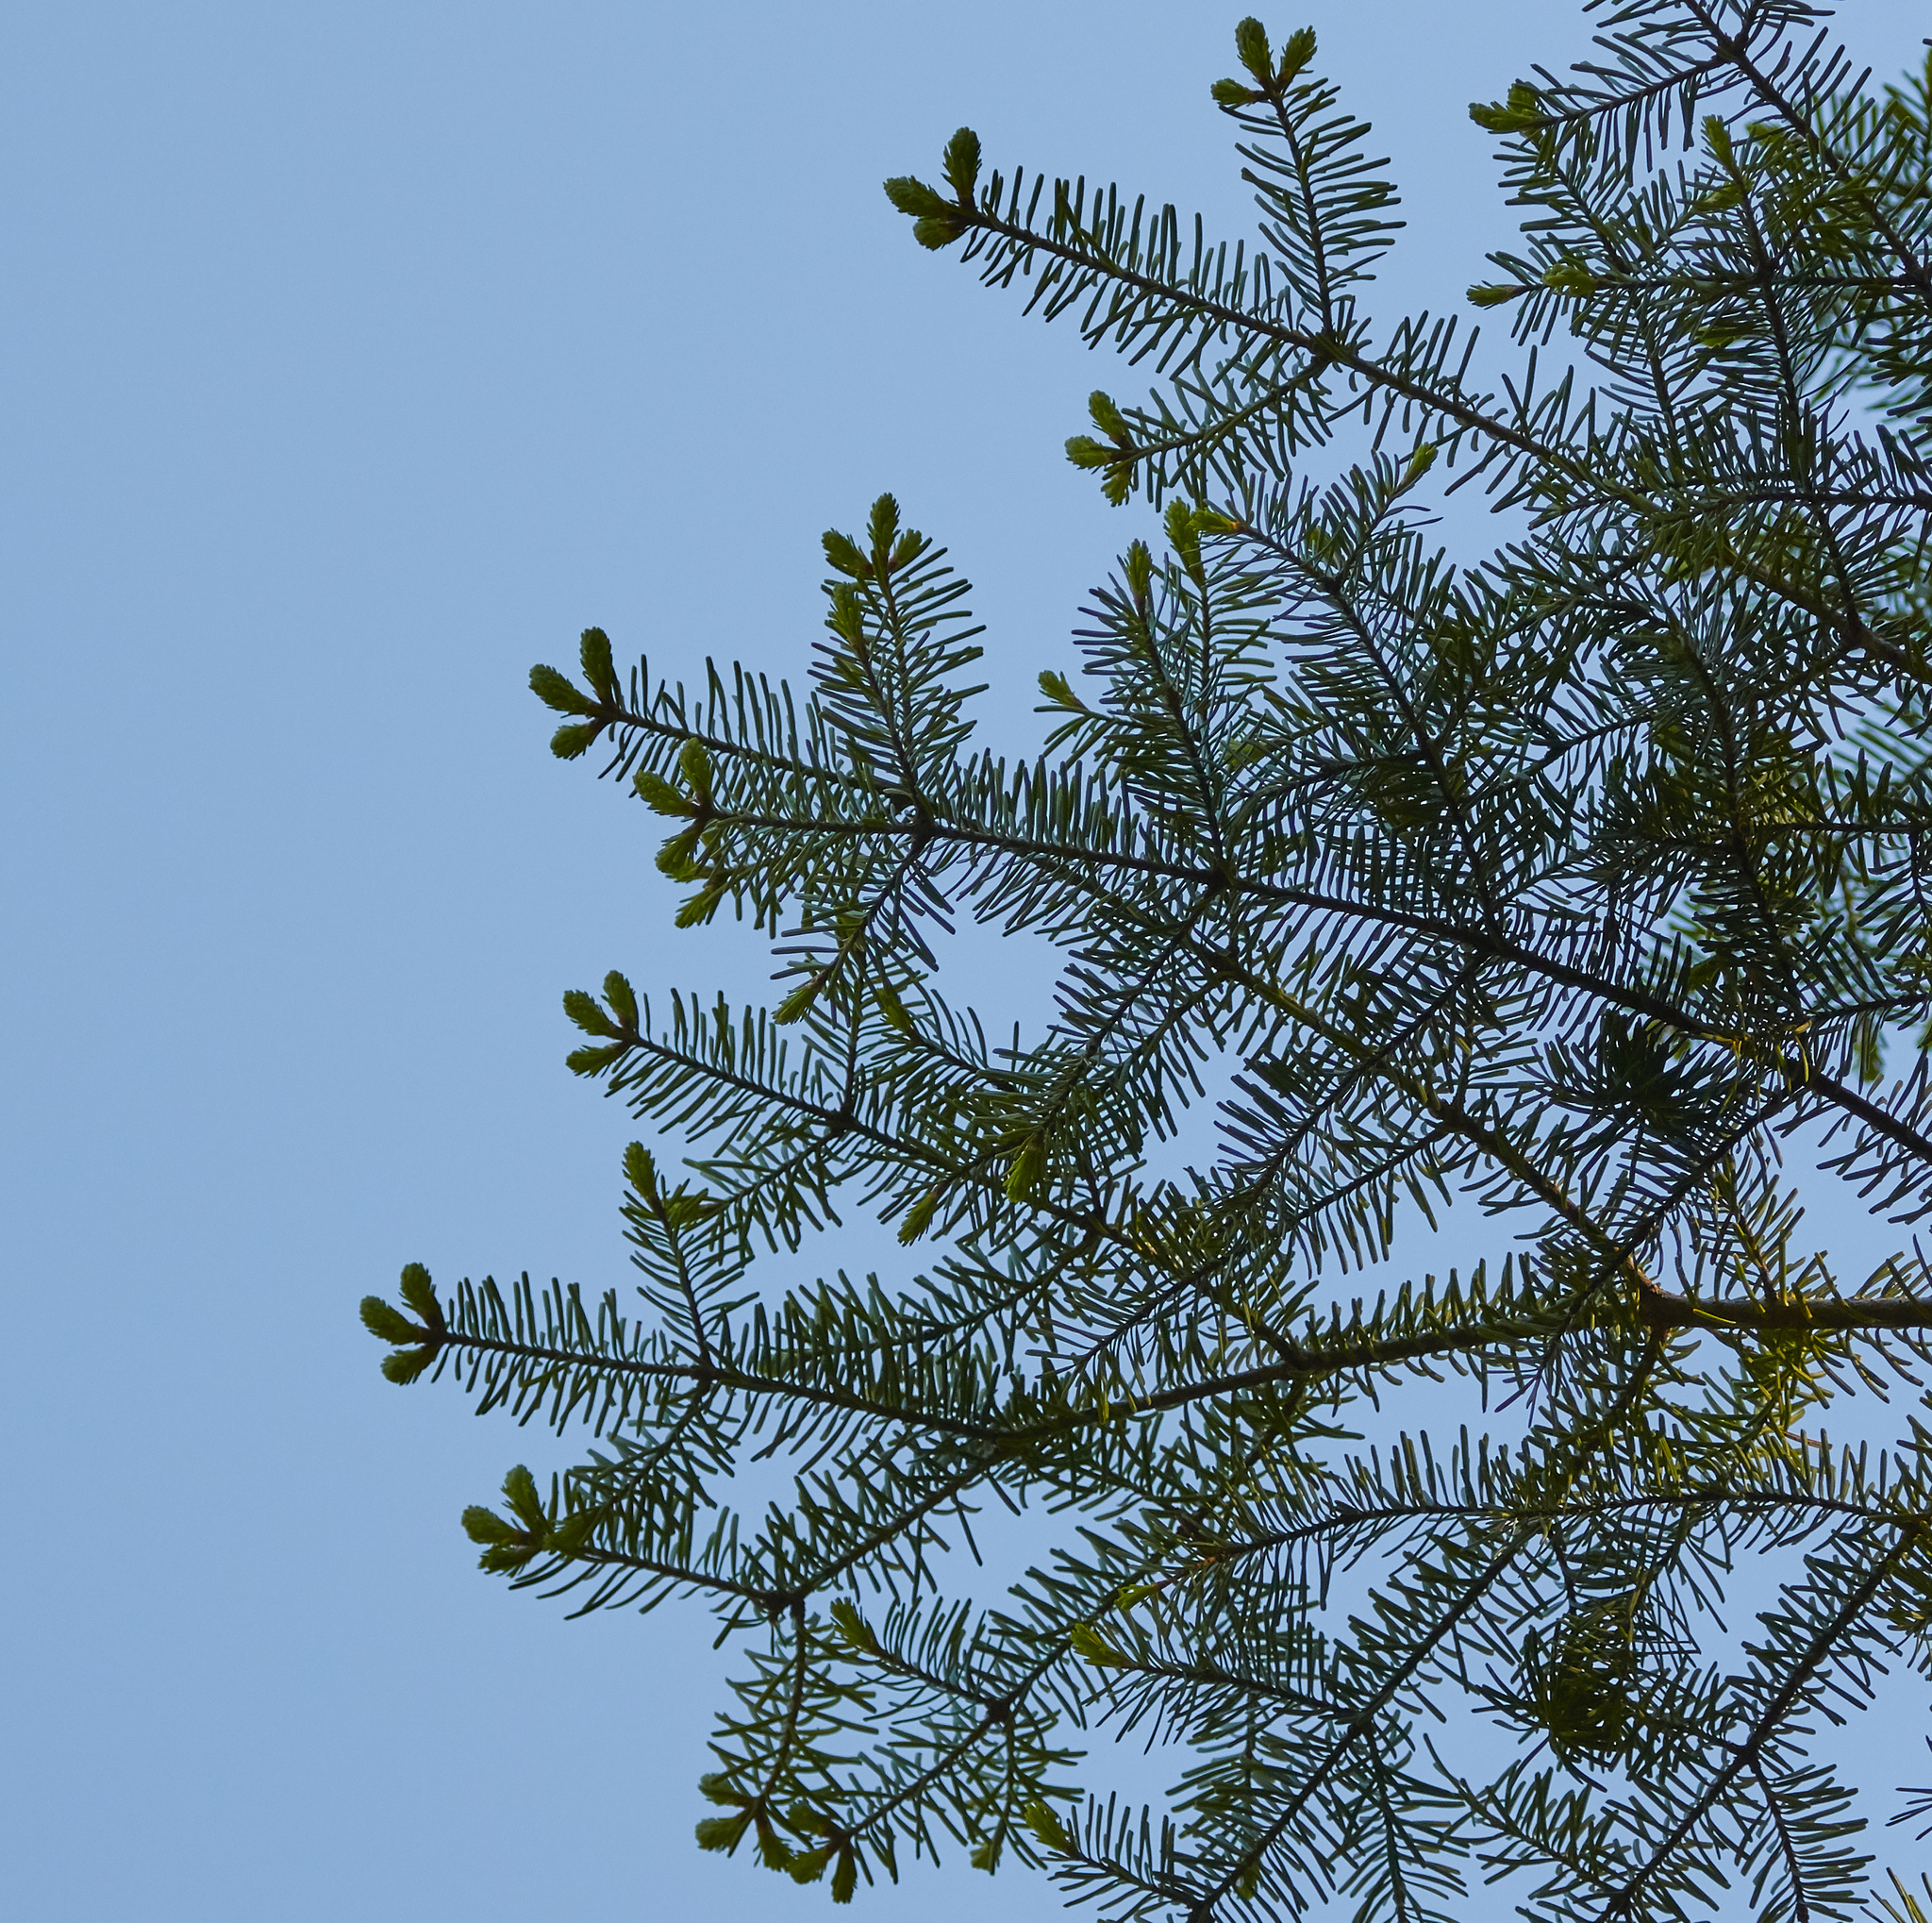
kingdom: Plantae
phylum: Tracheophyta
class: Pinopsida
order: Pinales
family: Pinaceae
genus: Abies
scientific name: Abies balsamea
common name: Balsam fir
